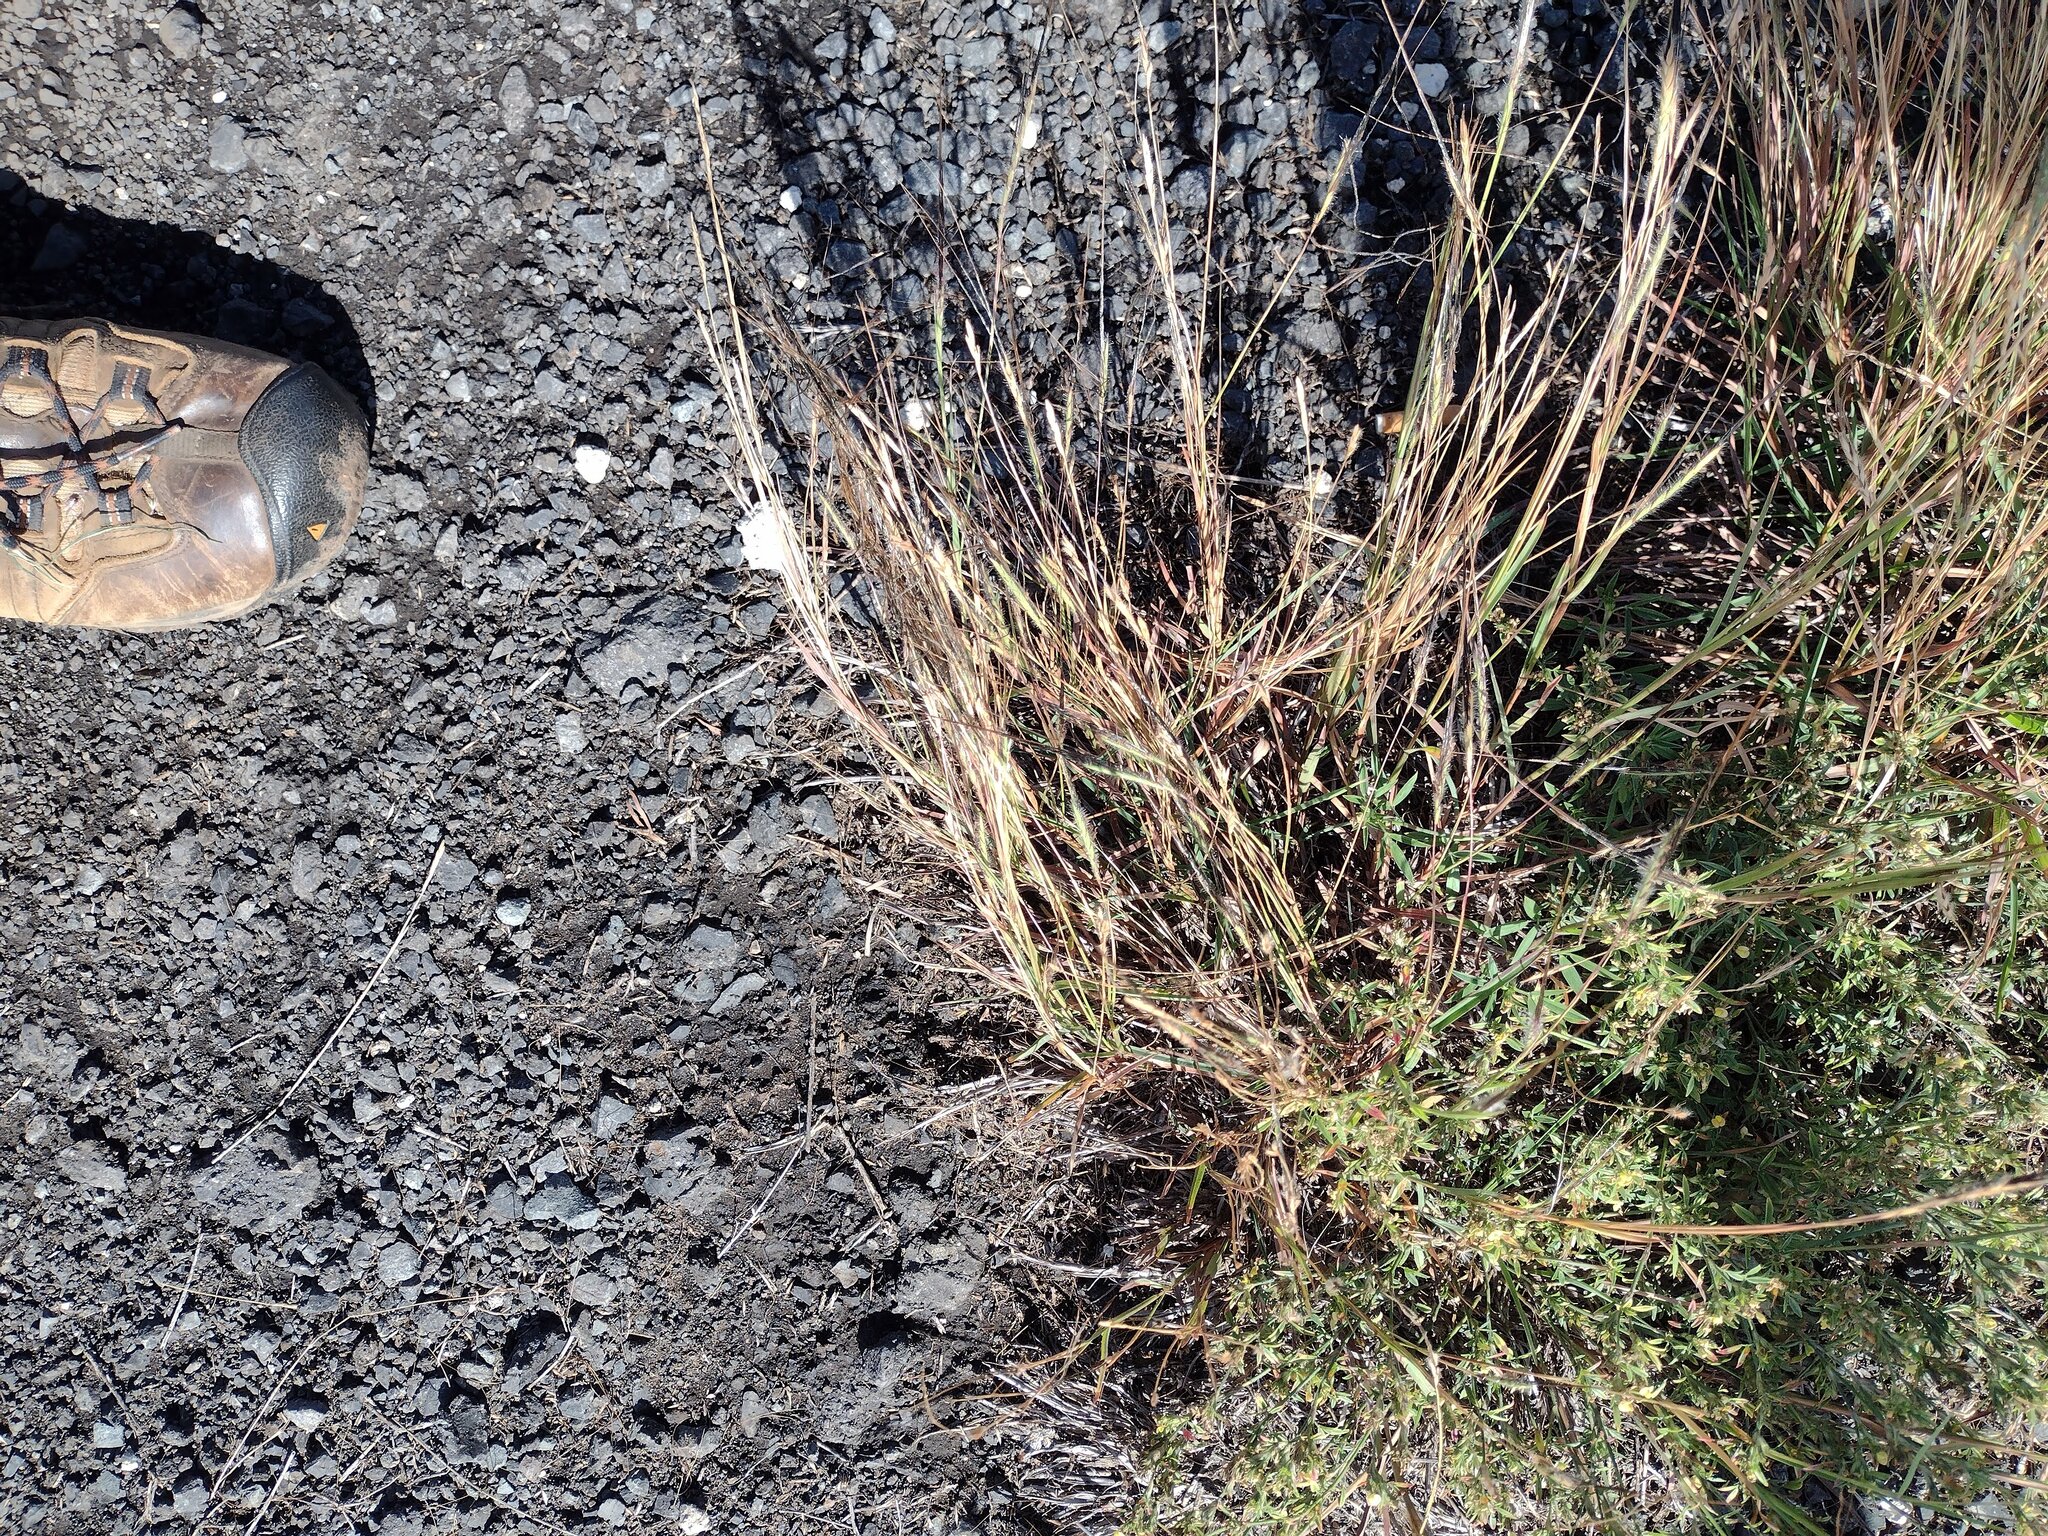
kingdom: Plantae
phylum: Tracheophyta
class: Liliopsida
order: Poales
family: Poaceae
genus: Heteropogon
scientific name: Heteropogon contortus
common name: Tanglehead
